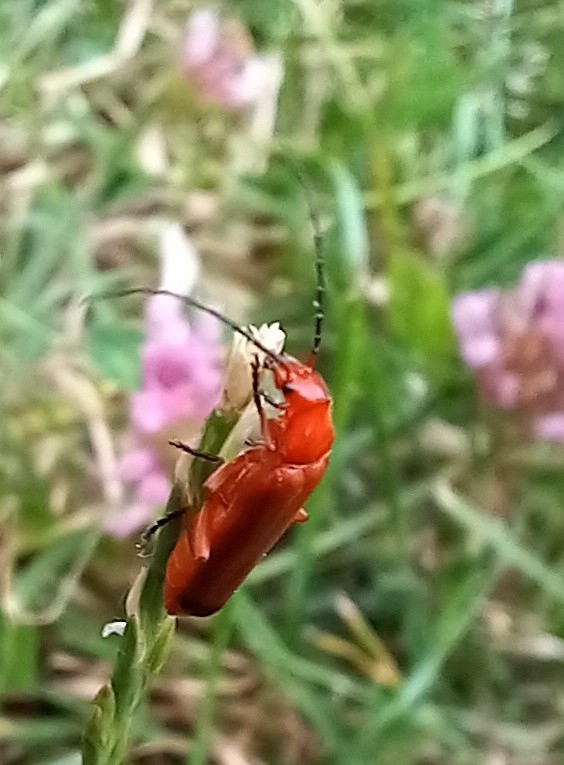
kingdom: Animalia
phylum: Arthropoda
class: Insecta
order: Coleoptera
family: Cantharidae
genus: Rhagonycha
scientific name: Rhagonycha fulva
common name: Common red soldier beetle
